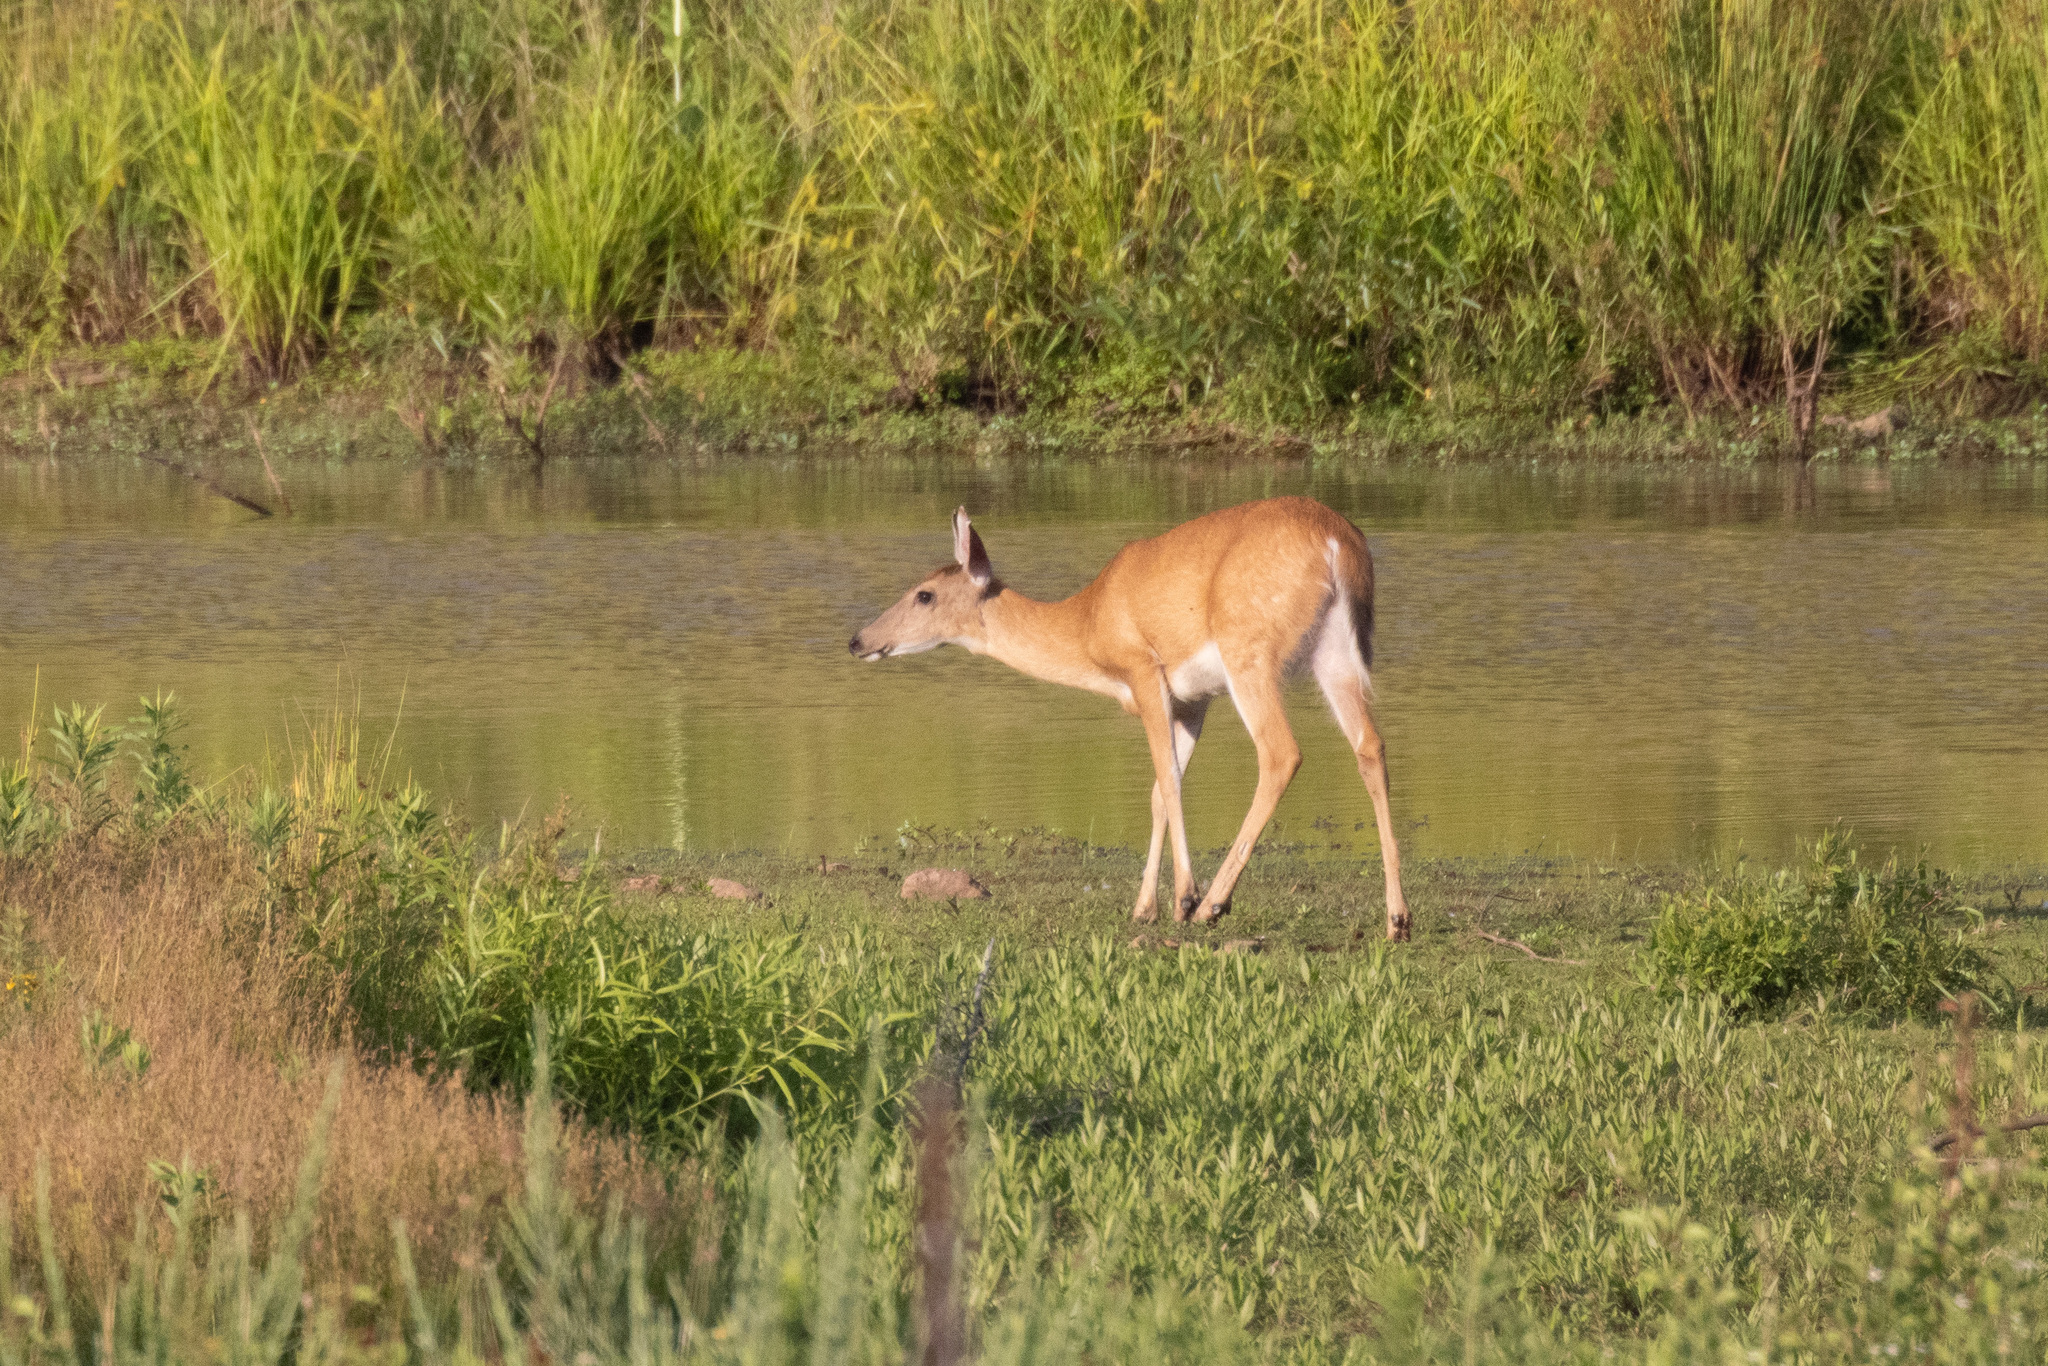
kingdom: Animalia
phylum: Chordata
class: Mammalia
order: Artiodactyla
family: Cervidae
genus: Odocoileus
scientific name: Odocoileus virginianus
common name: White-tailed deer
